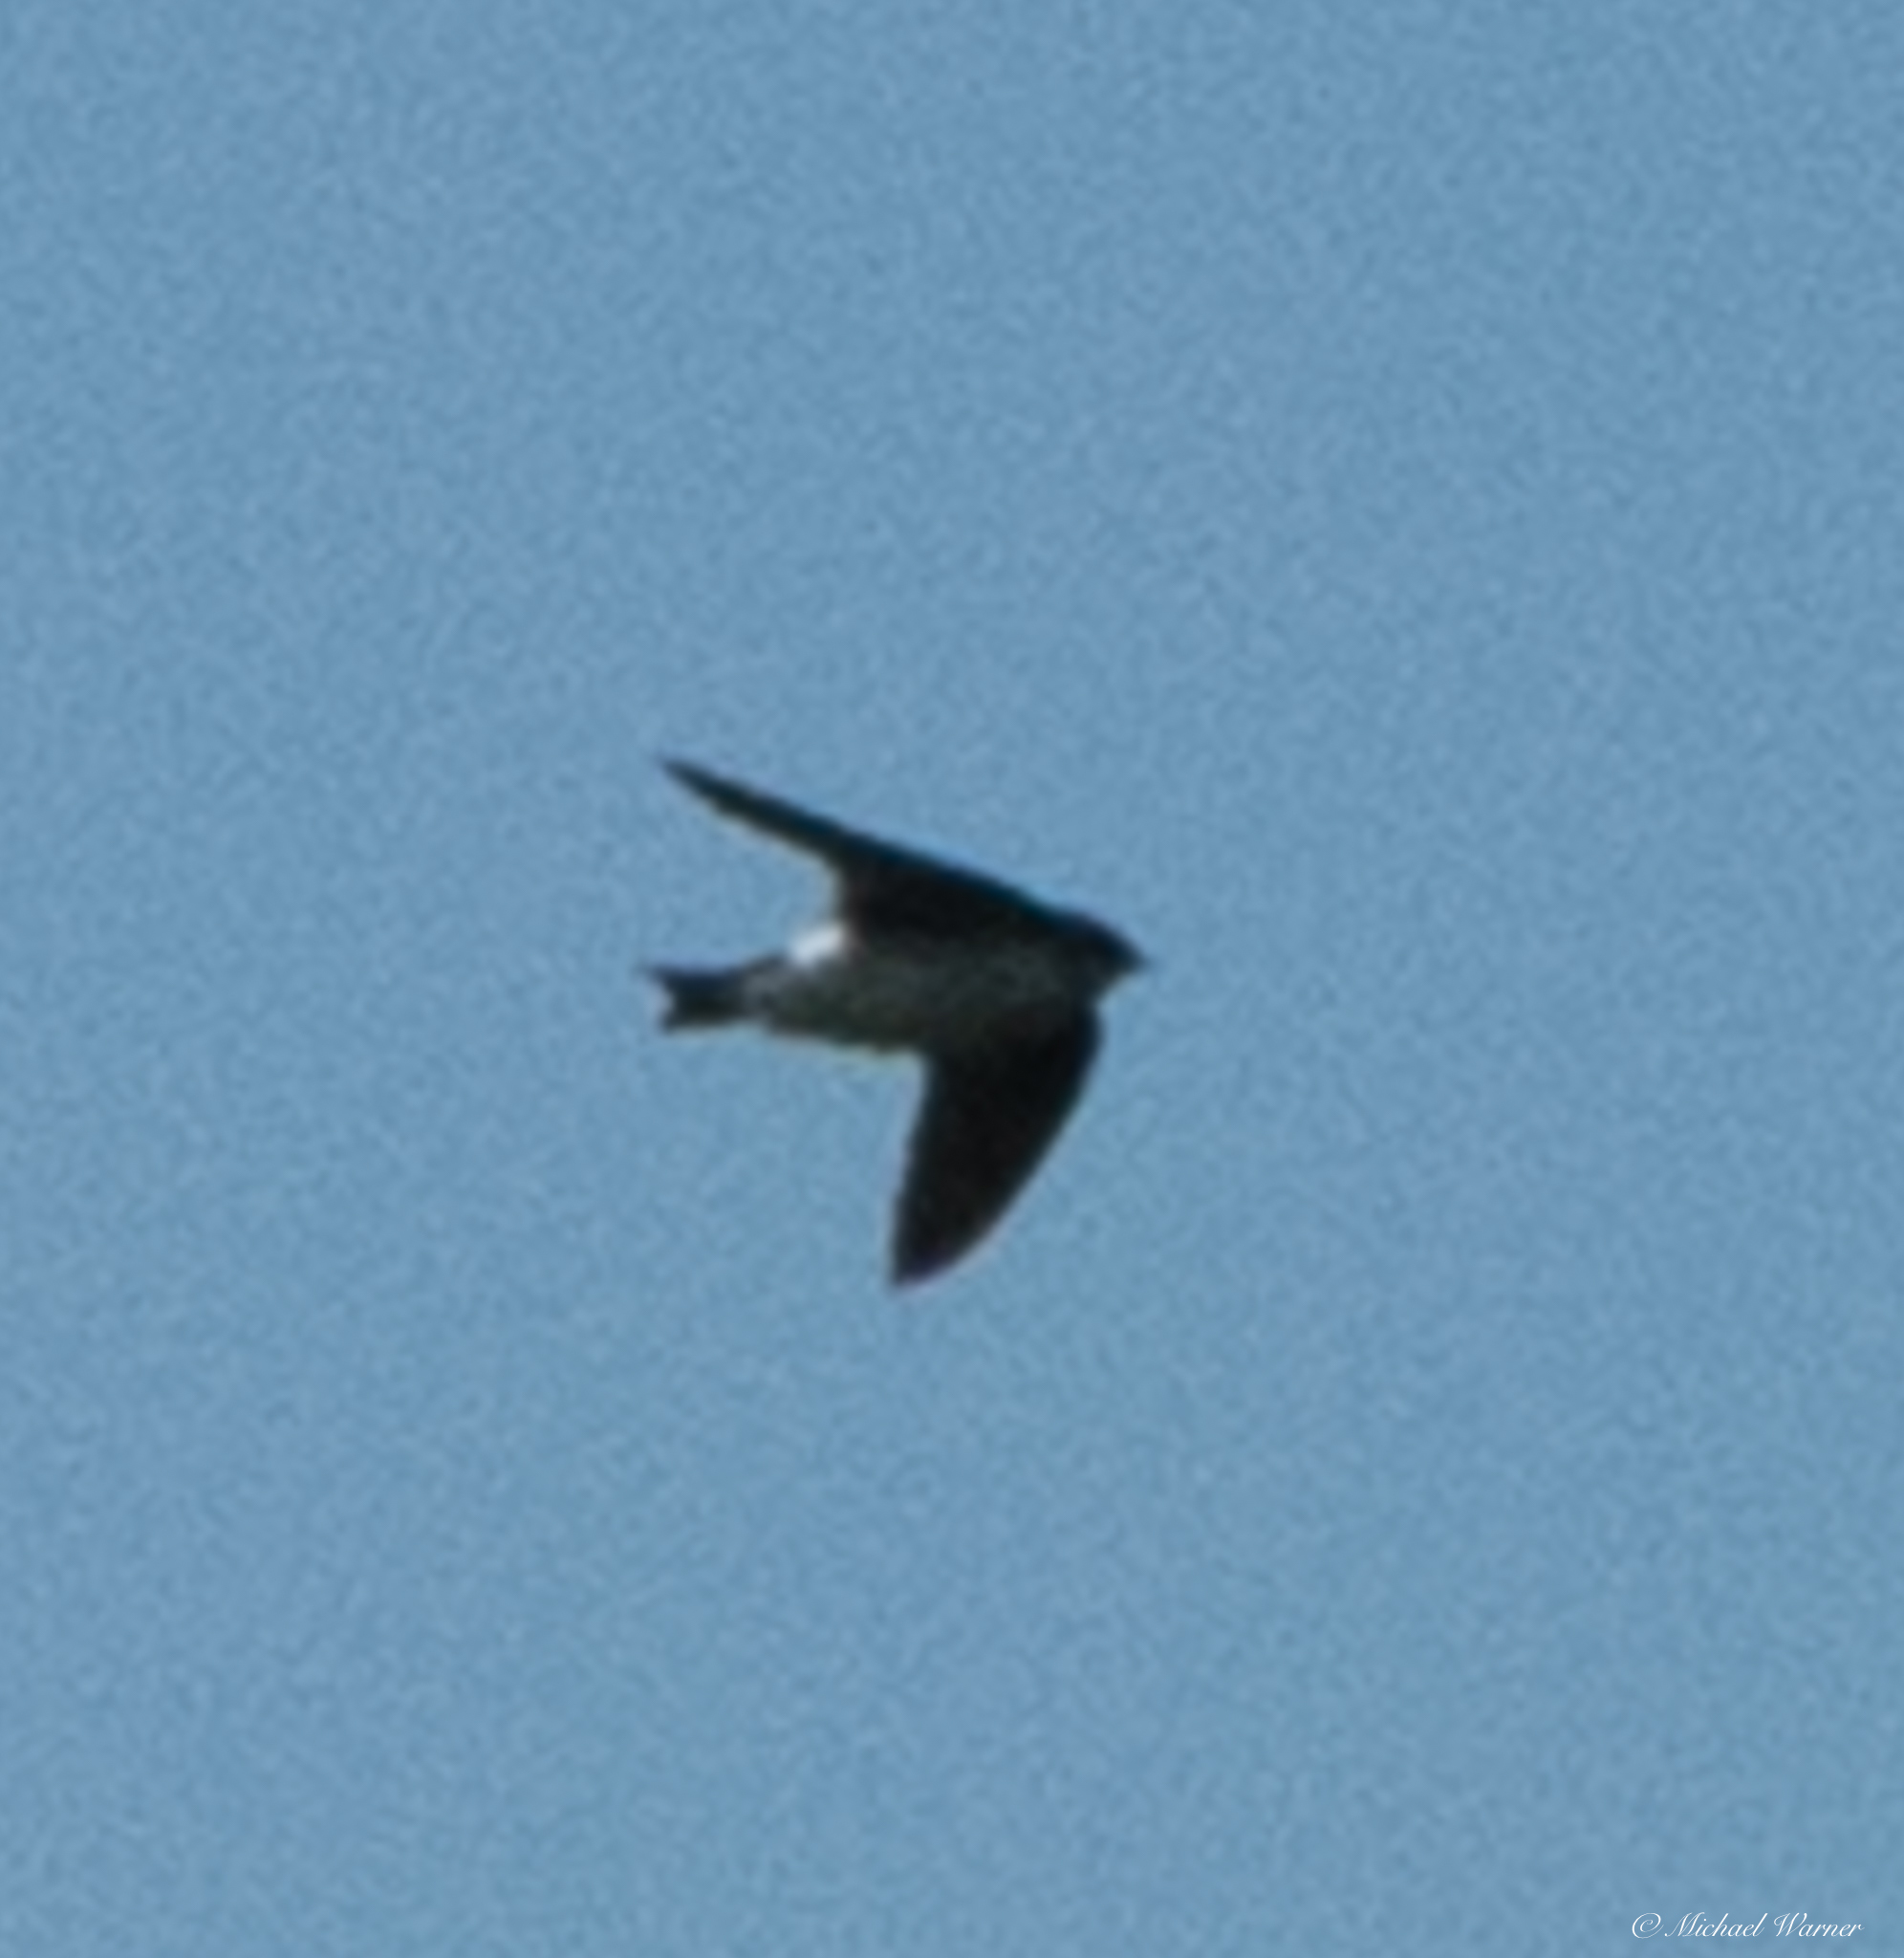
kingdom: Animalia
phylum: Chordata
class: Aves
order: Passeriformes
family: Hirundinidae
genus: Tachycineta
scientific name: Tachycineta thalassina
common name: Violet-green swallow
